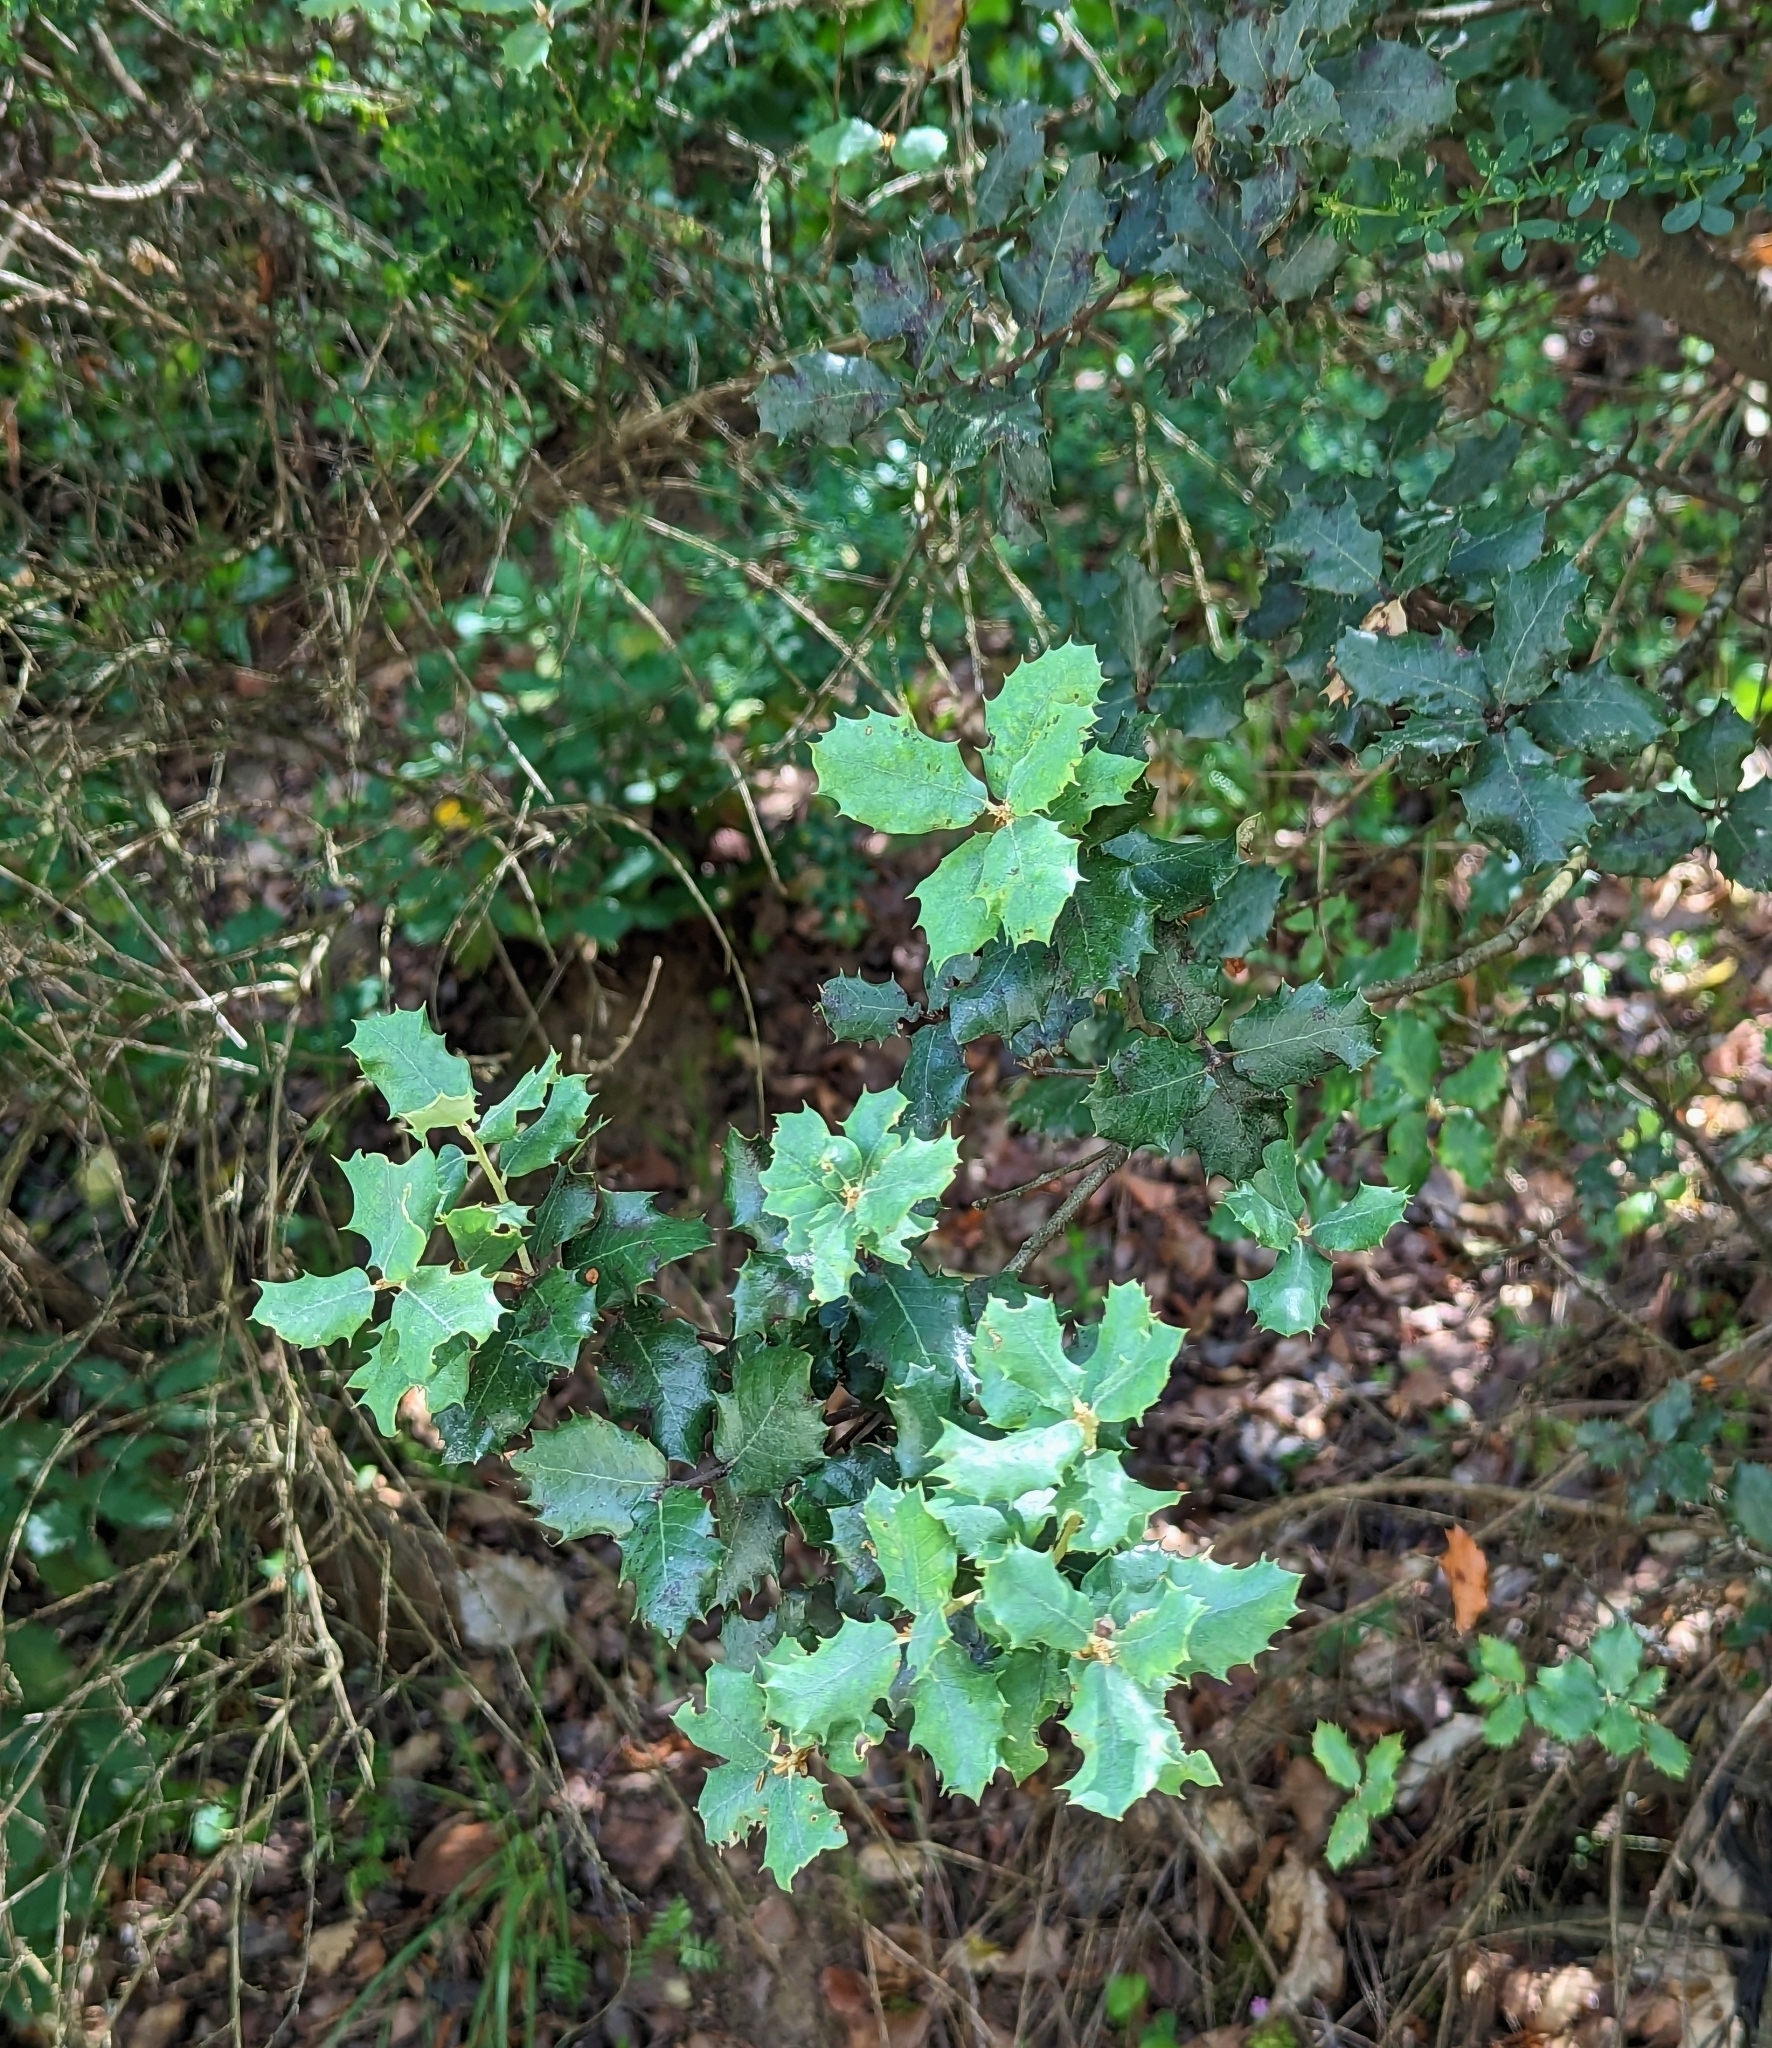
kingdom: Plantae
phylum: Tracheophyta
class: Magnoliopsida
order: Fagales
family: Fagaceae
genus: Quercus
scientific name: Quercus rotundifolia
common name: Holm oak
